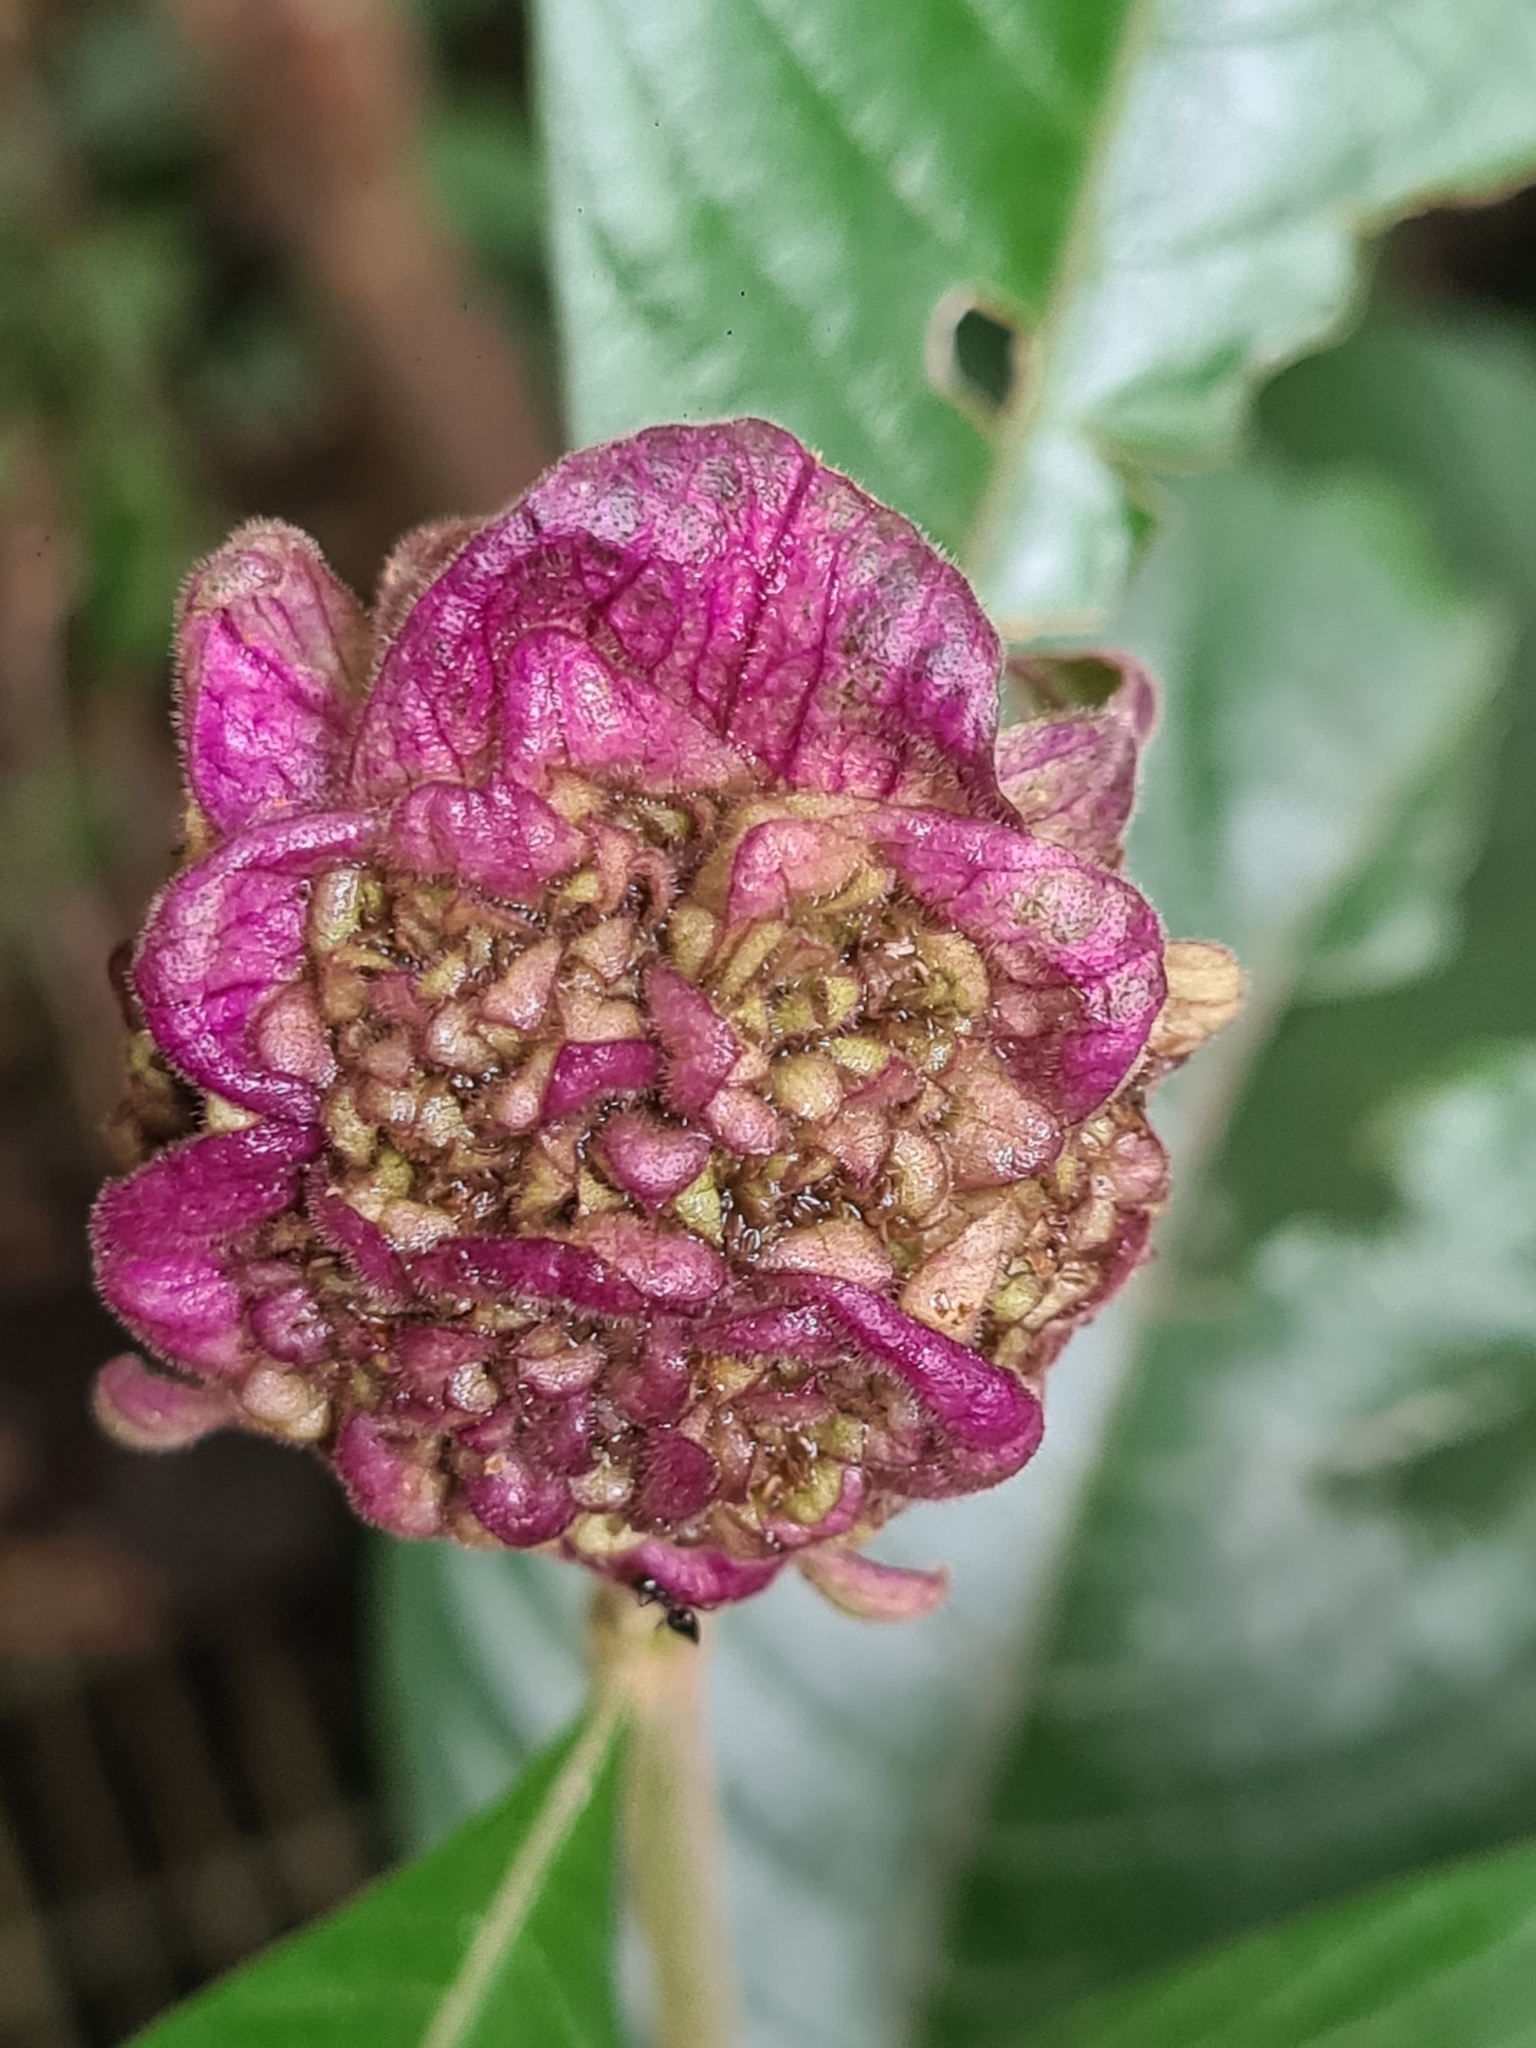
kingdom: Plantae
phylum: Tracheophyta
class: Magnoliopsida
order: Gentianales
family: Rubiaceae
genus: Palicourea
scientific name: Palicourea bracteocardia
